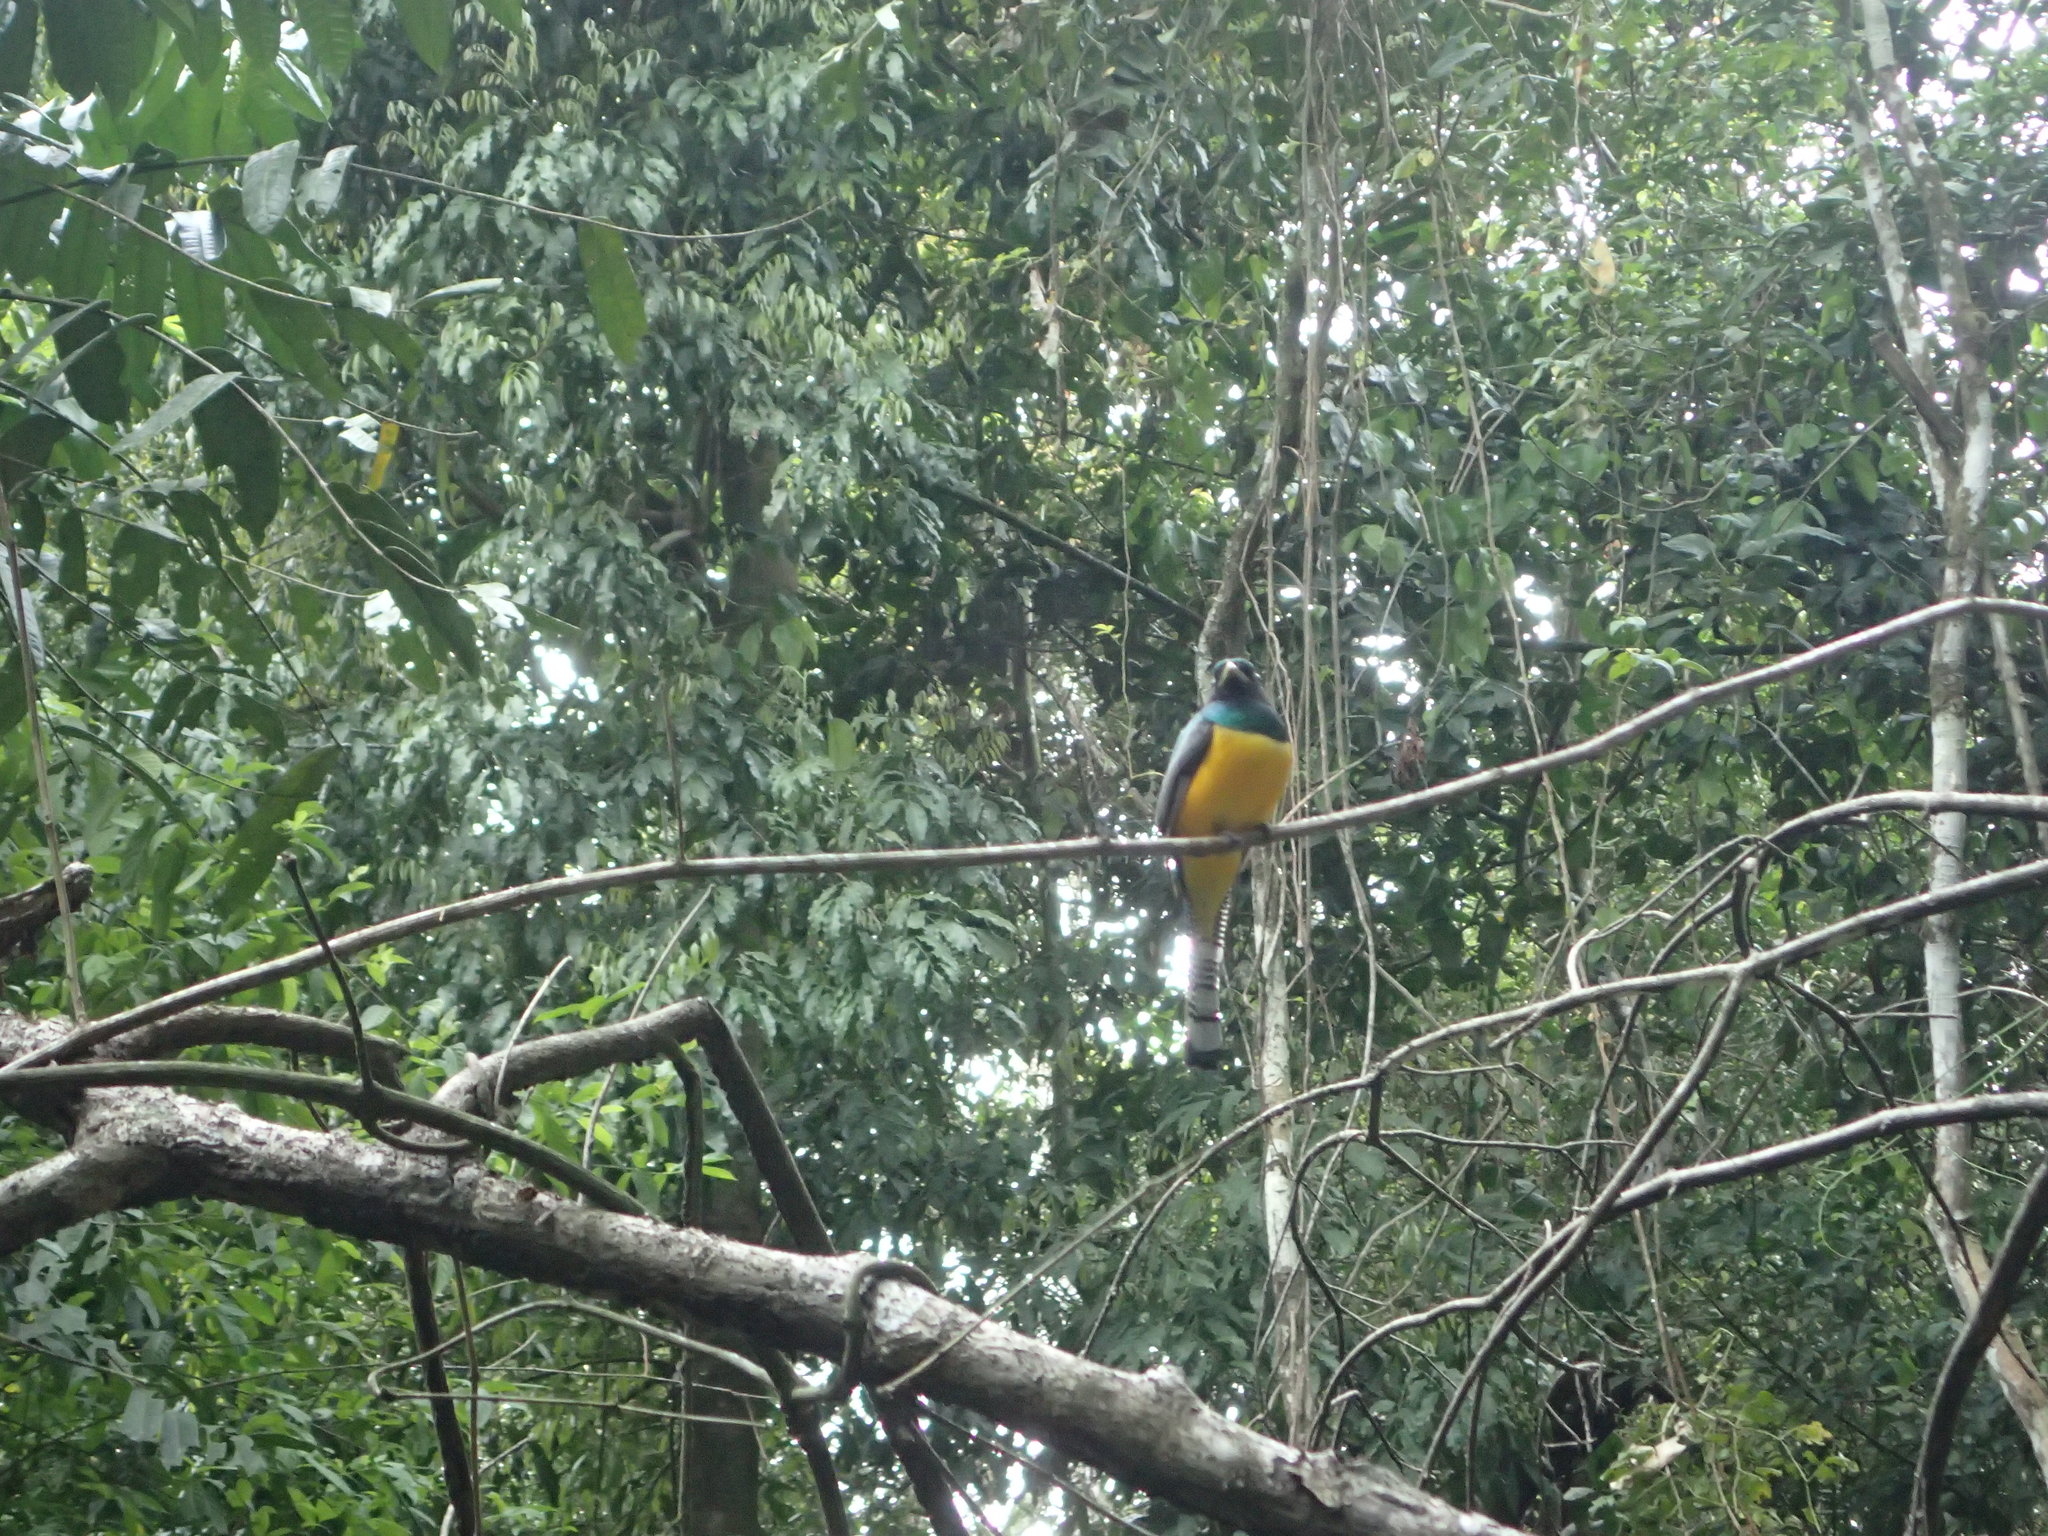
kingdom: Animalia
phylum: Chordata
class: Aves
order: Trogoniformes
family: Trogonidae
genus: Trogon
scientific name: Trogon rufus
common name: Black-throated trogon
